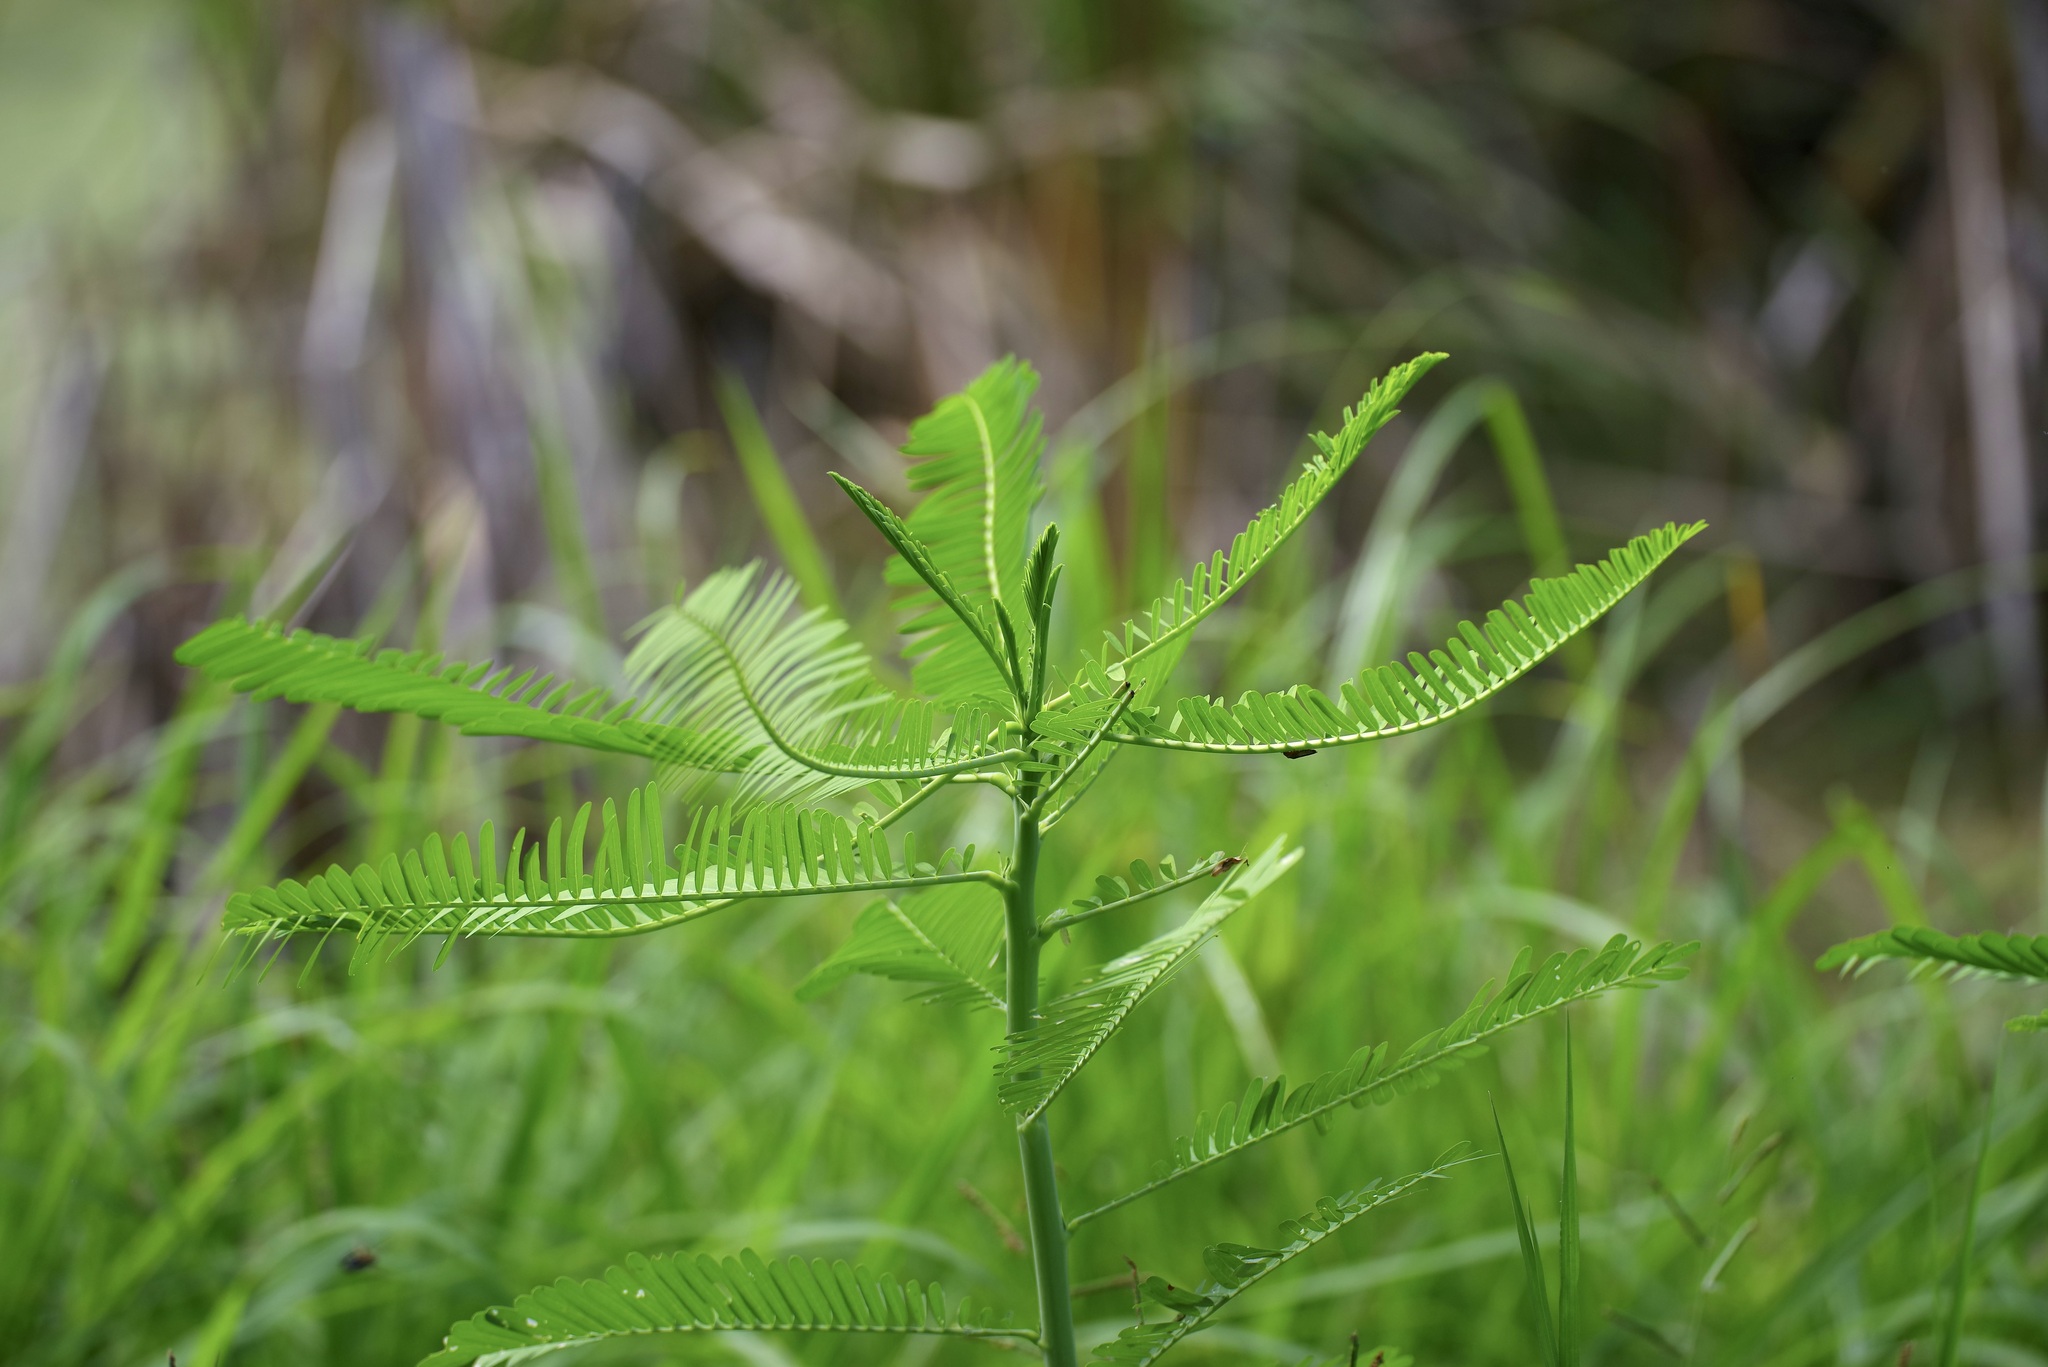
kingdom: Plantae
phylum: Tracheophyta
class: Magnoliopsida
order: Fabales
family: Fabaceae
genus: Sesbania
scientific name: Sesbania herbacea
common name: Bigpod sesbania
